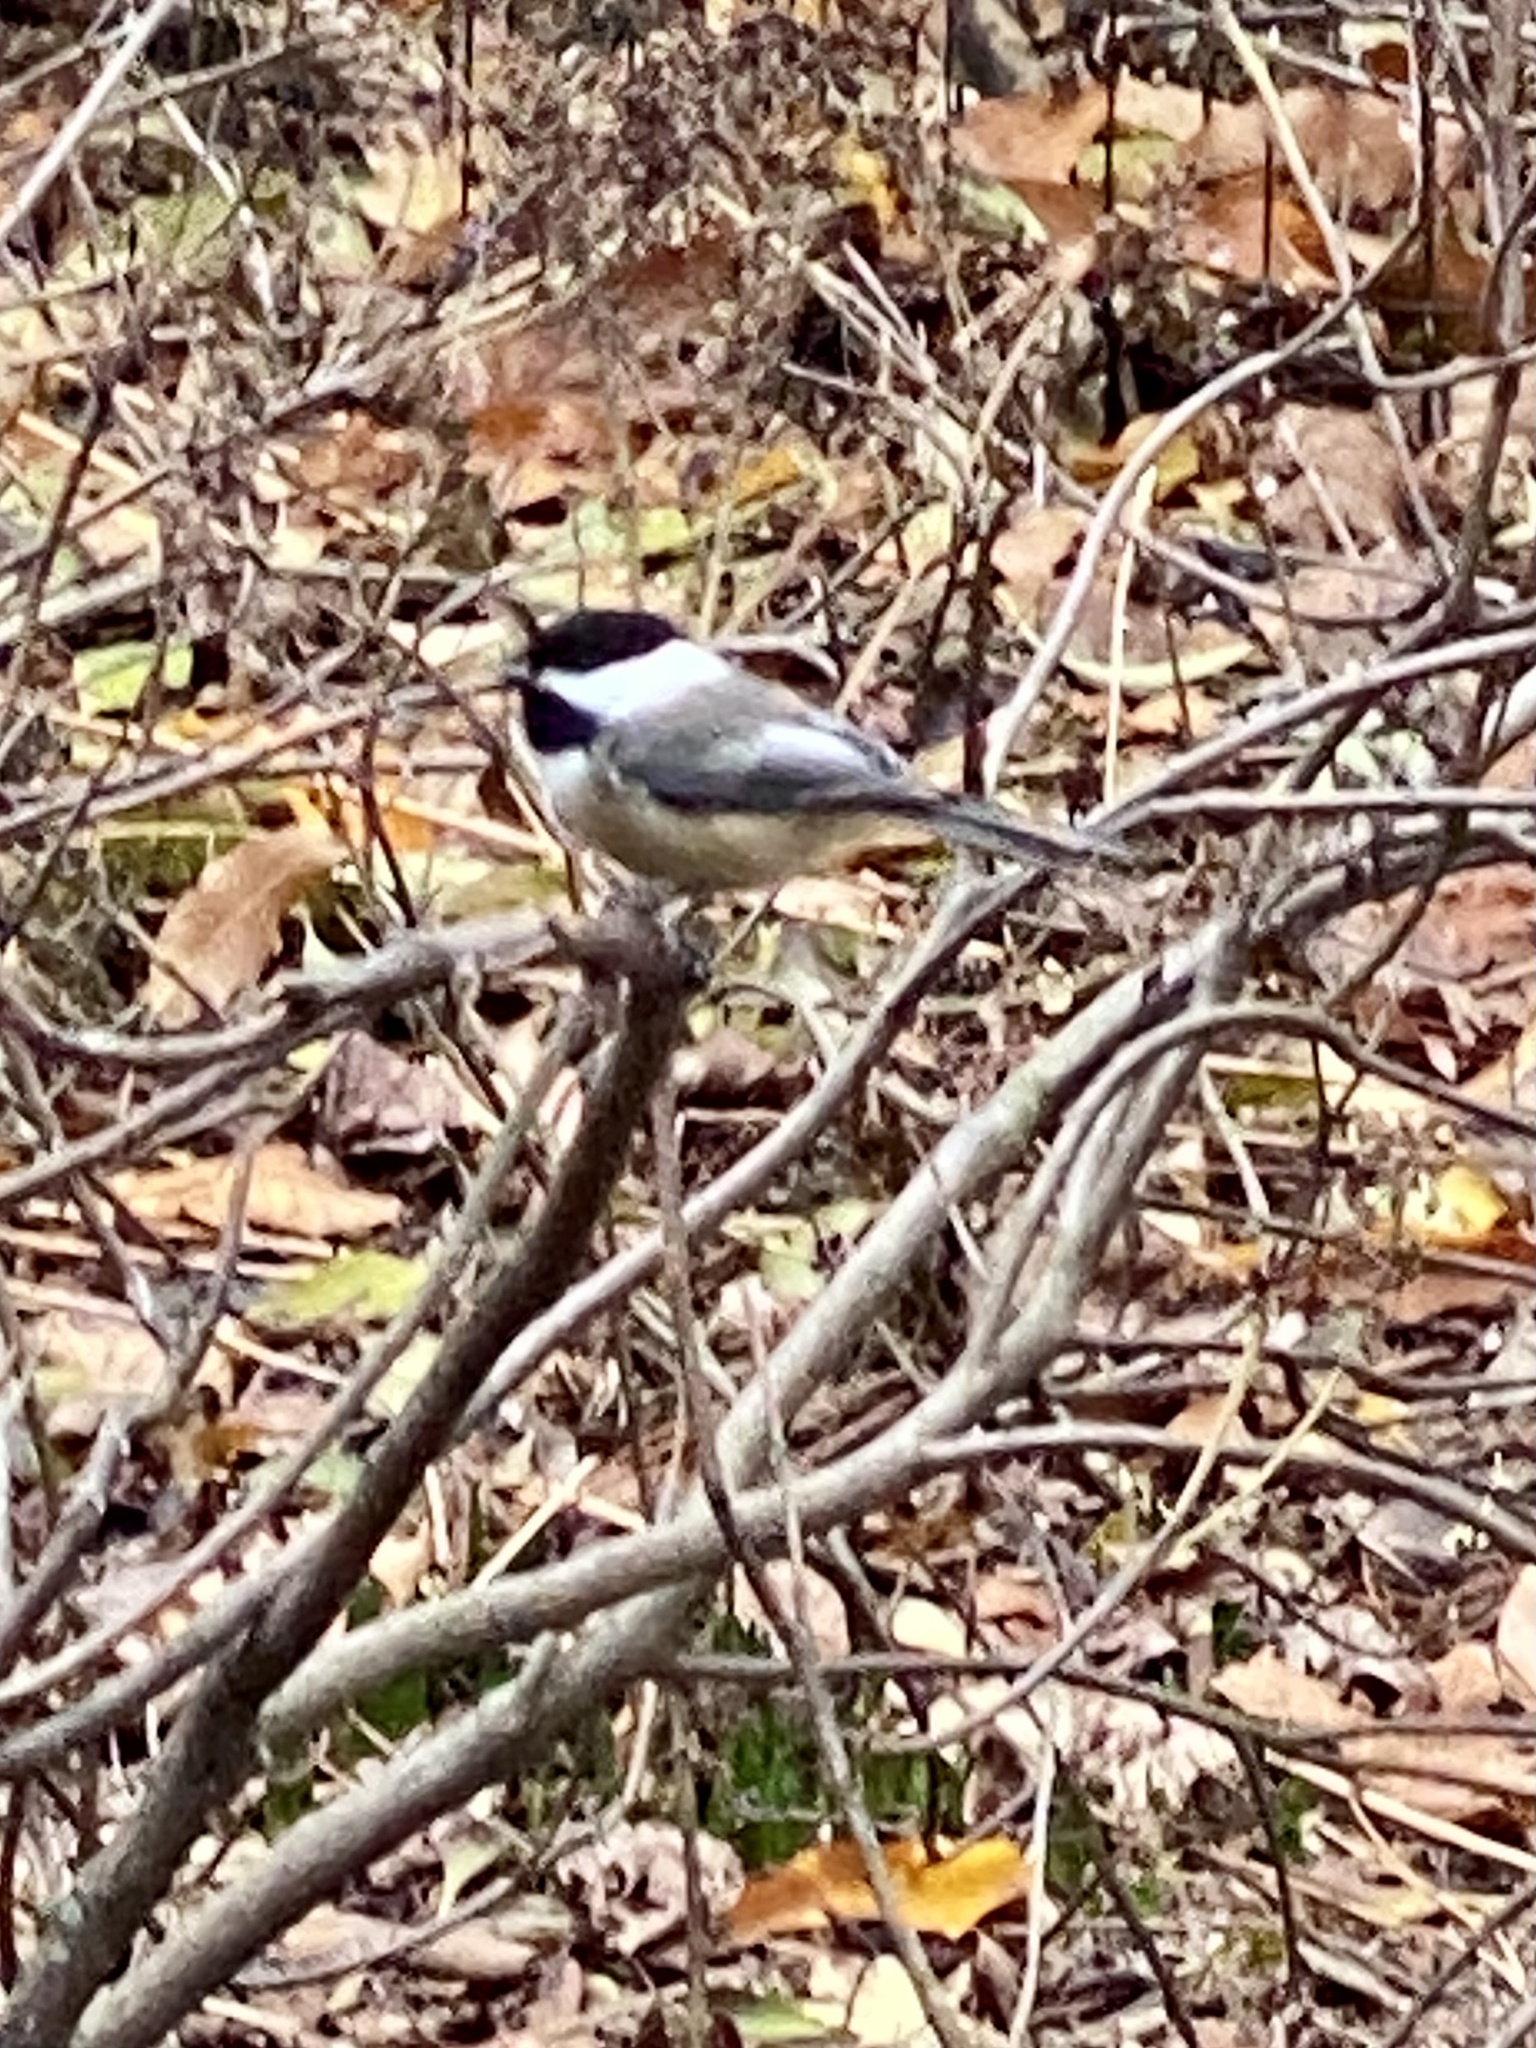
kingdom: Animalia
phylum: Chordata
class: Aves
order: Passeriformes
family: Paridae
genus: Poecile
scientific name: Poecile atricapillus
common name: Black-capped chickadee
